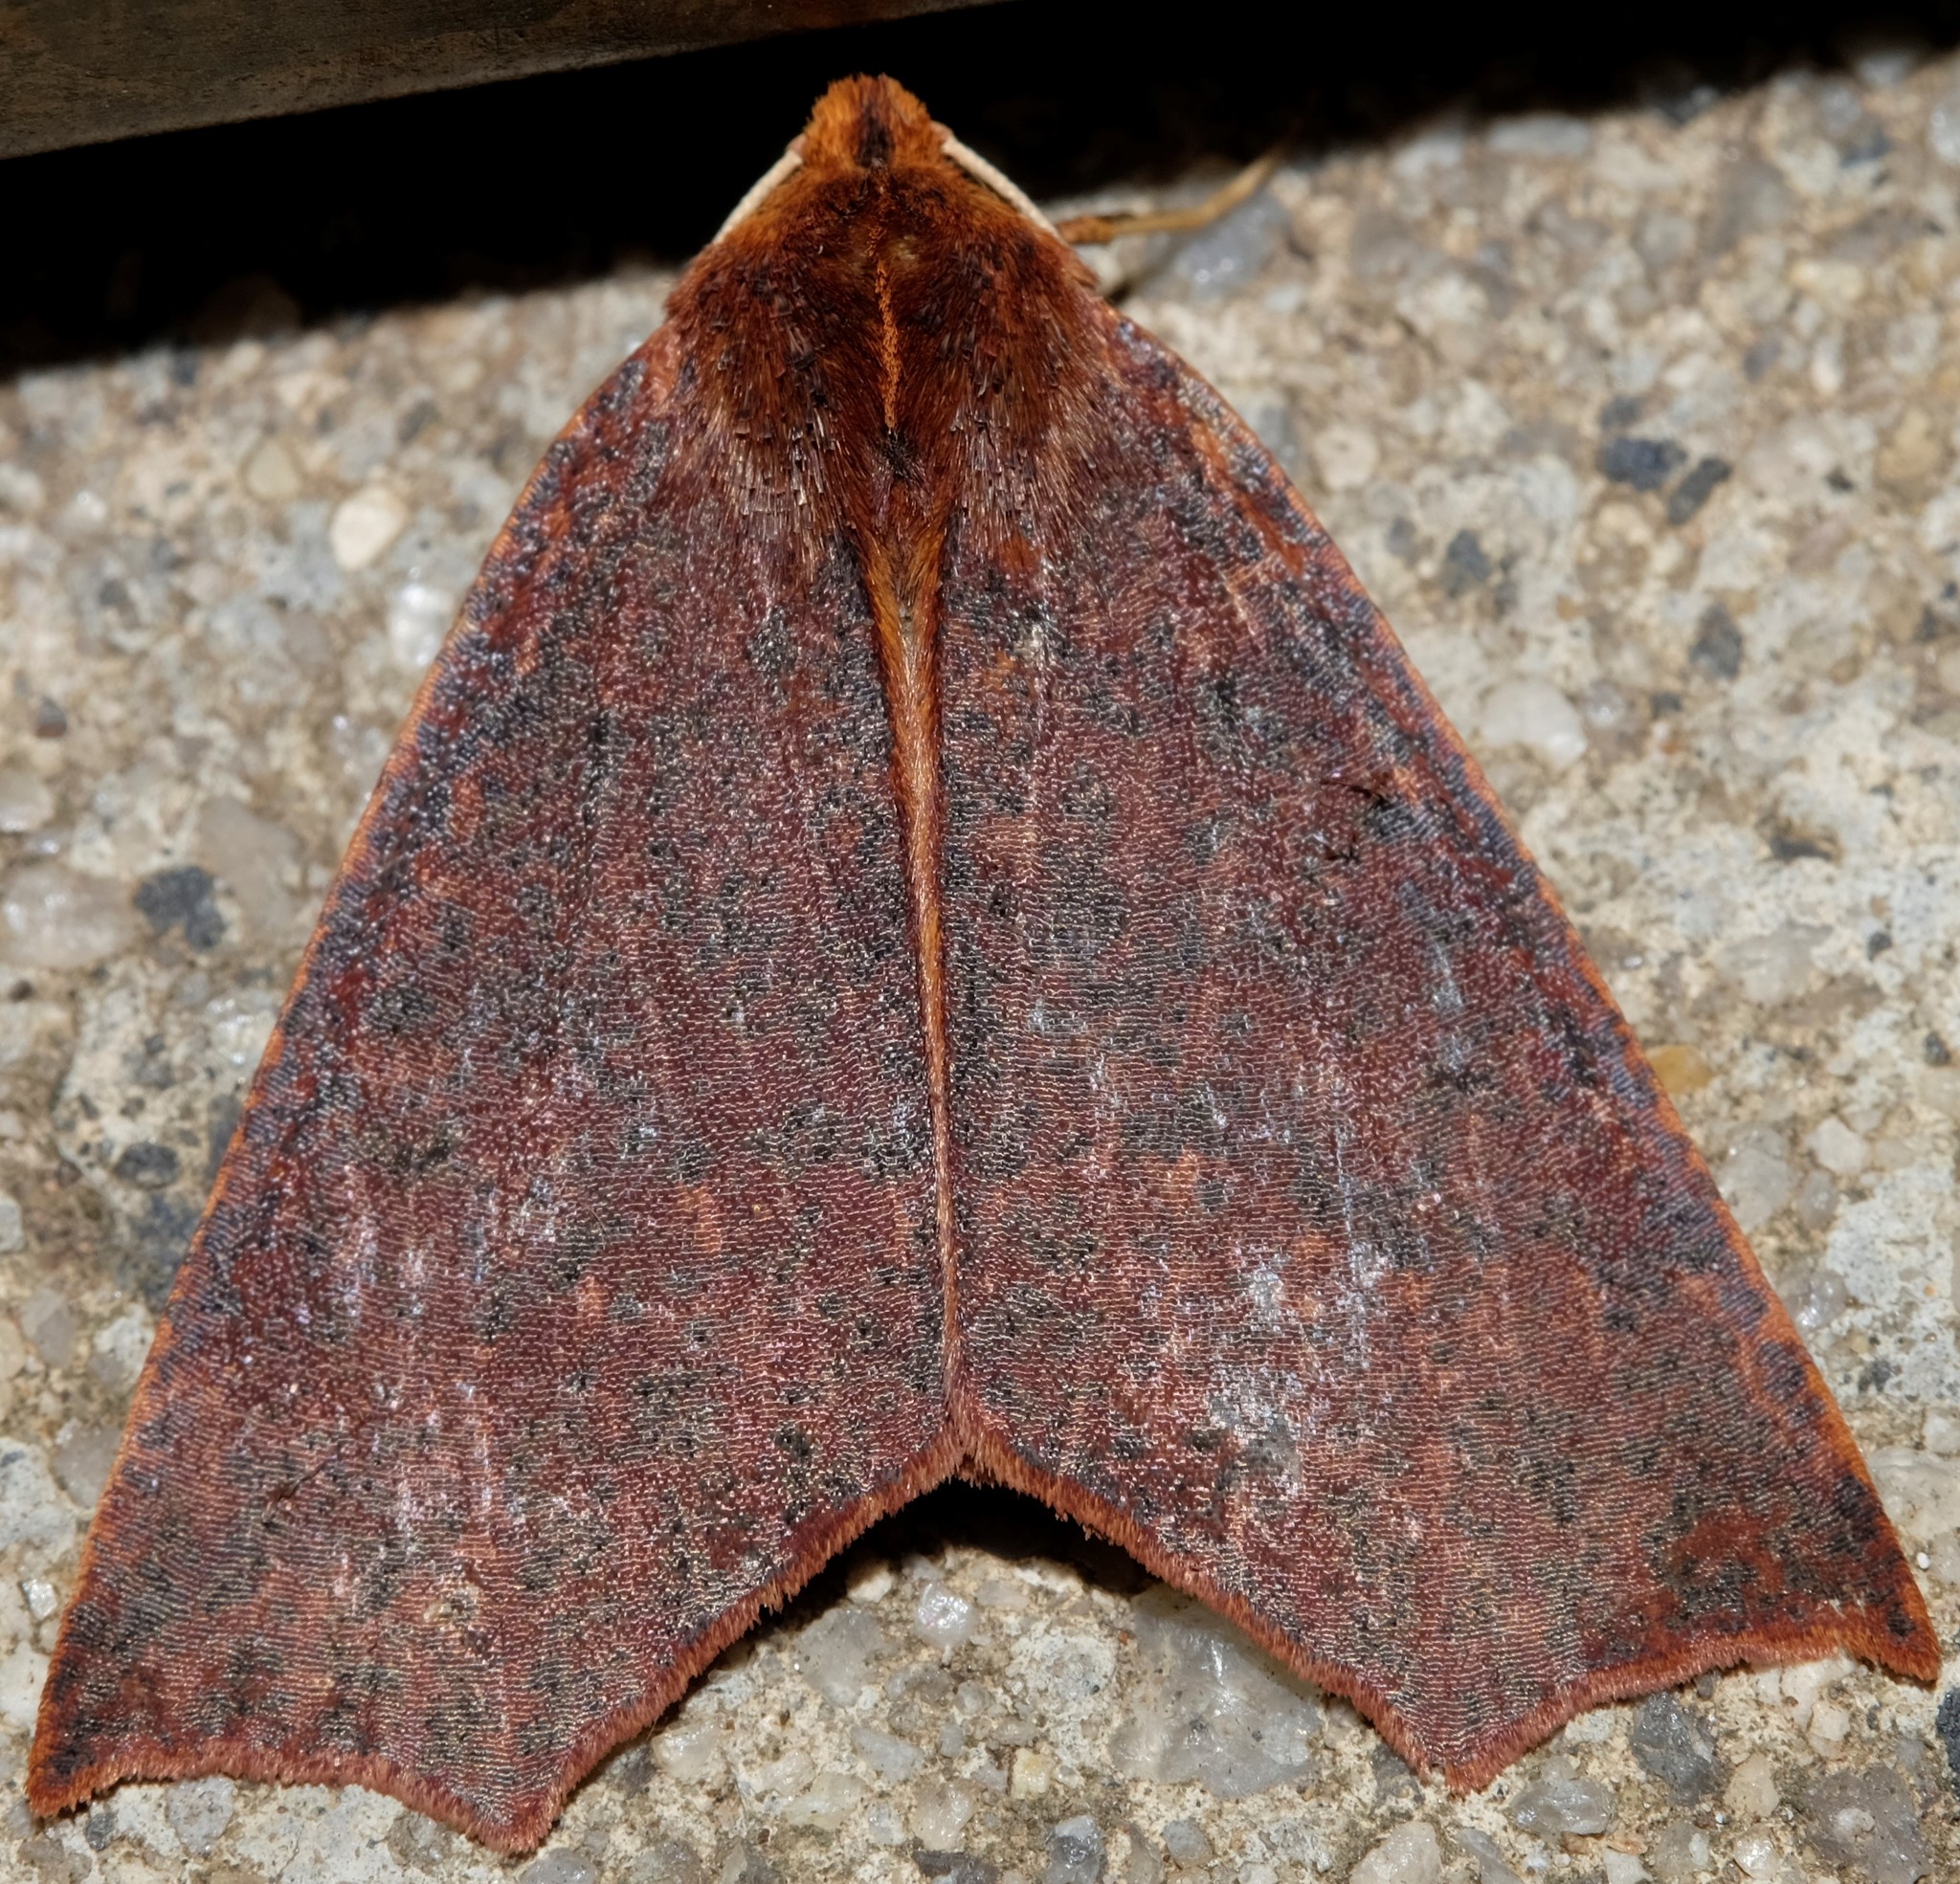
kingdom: Animalia
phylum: Arthropoda
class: Insecta
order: Lepidoptera
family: Geometridae
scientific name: Geometridae
